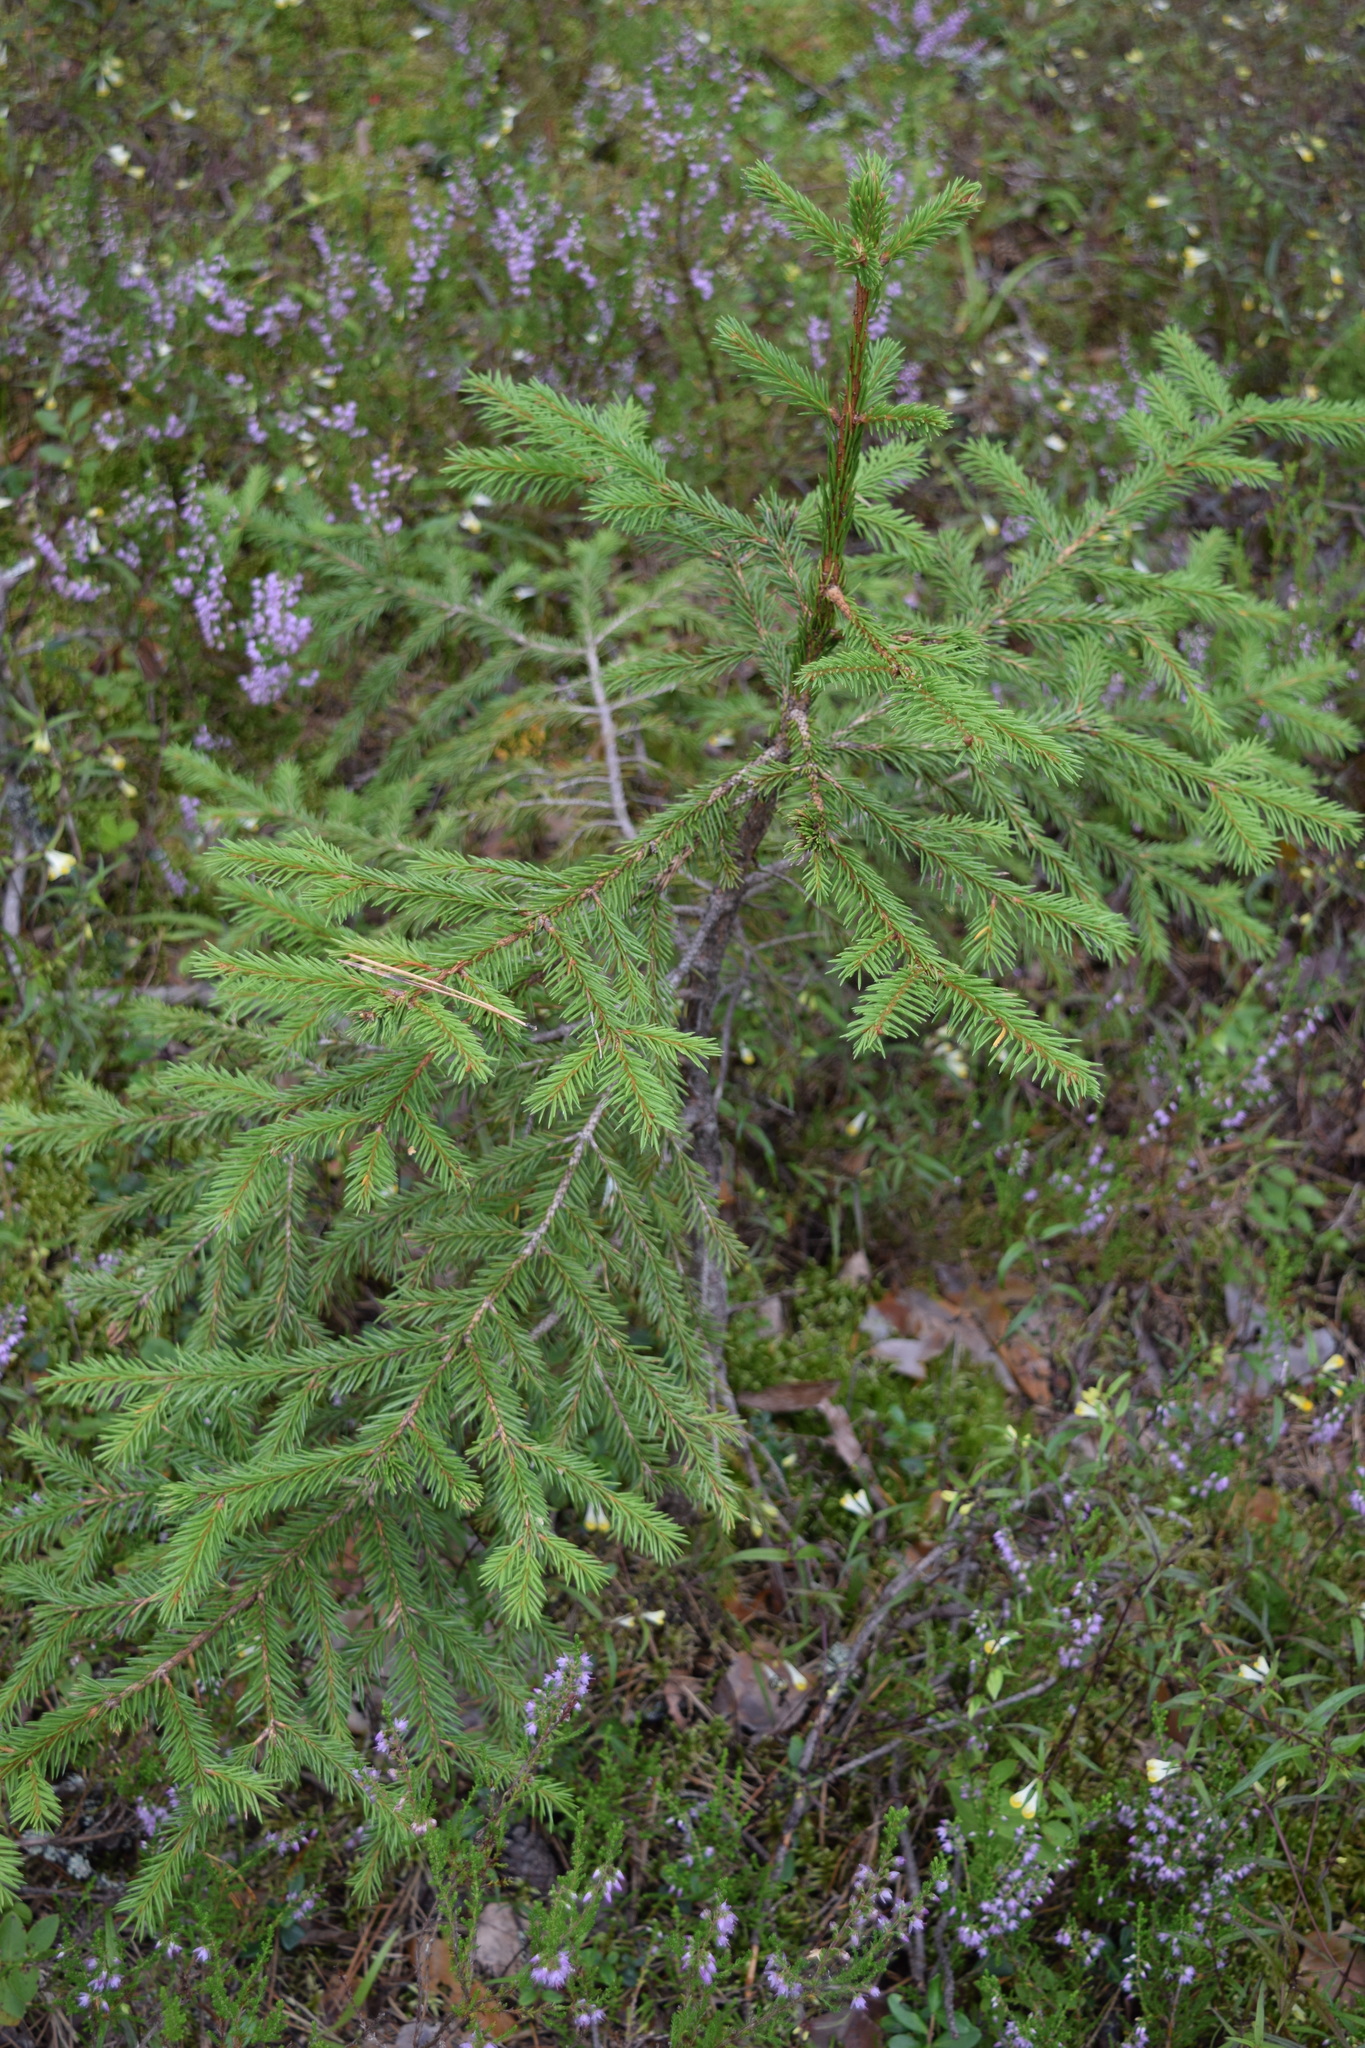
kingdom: Plantae
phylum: Tracheophyta
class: Pinopsida
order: Pinales
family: Pinaceae
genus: Picea
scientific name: Picea abies
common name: Norway spruce
